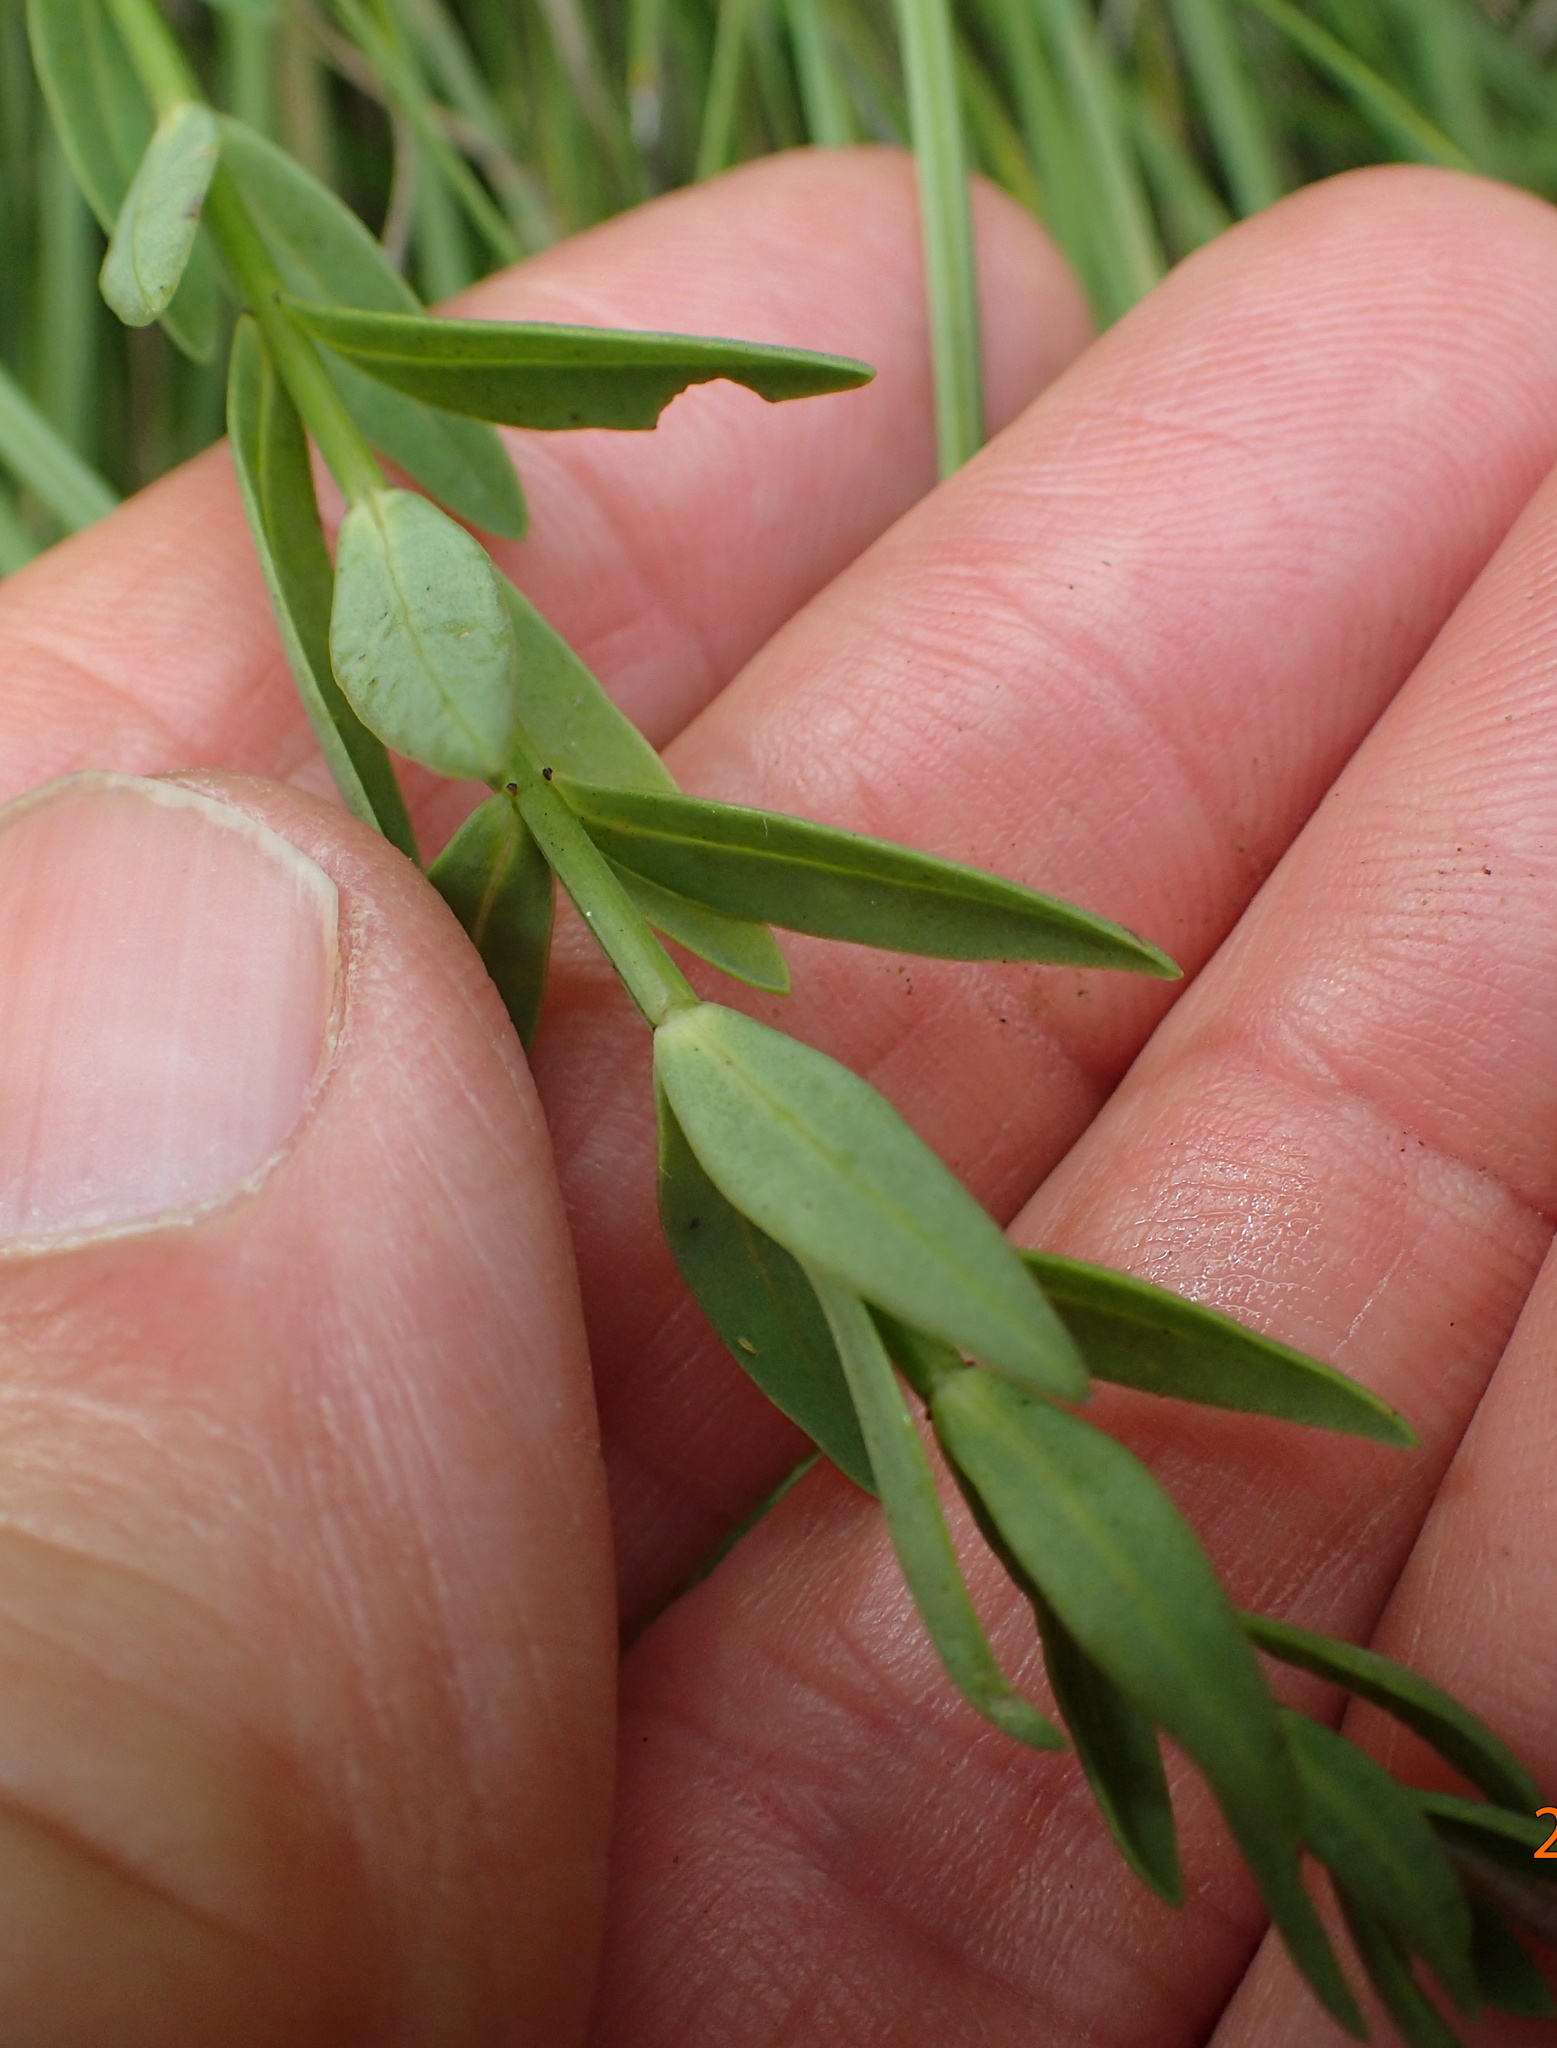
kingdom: Plantae
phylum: Tracheophyta
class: Magnoliopsida
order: Malpighiales
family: Linaceae
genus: Linum
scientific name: Linum thunbergii
